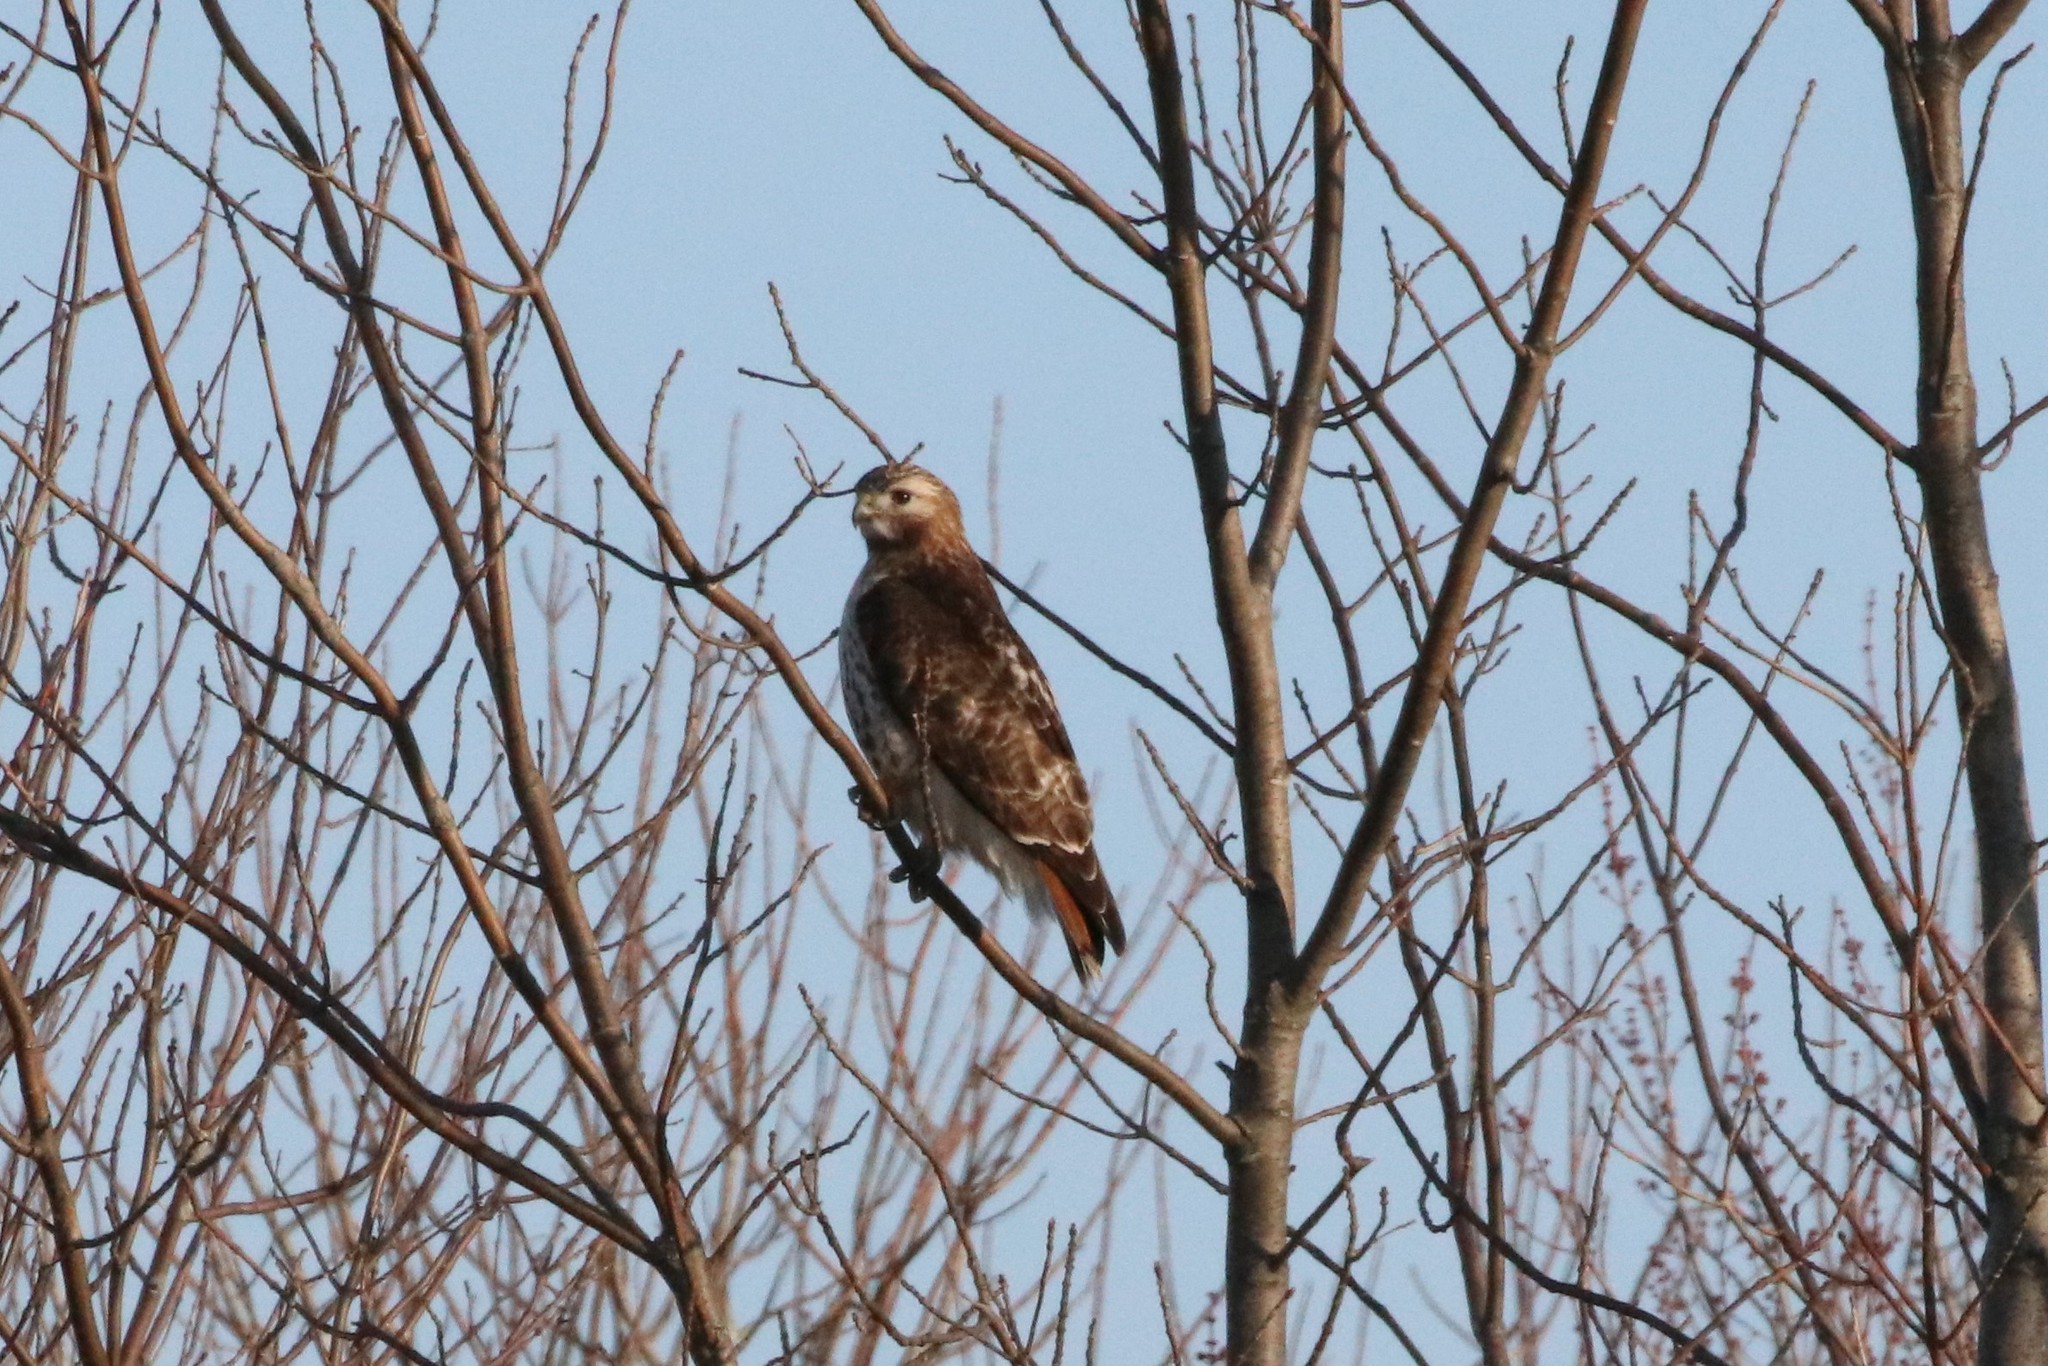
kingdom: Animalia
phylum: Chordata
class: Aves
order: Accipitriformes
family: Accipitridae
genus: Buteo
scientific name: Buteo jamaicensis
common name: Red-tailed hawk
